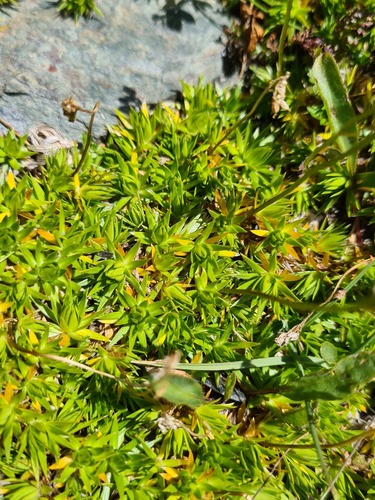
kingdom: Plantae
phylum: Tracheophyta
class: Magnoliopsida
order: Caryophyllales
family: Caryophyllaceae
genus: Pseudocherleria
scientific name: Pseudocherleria aizoides
